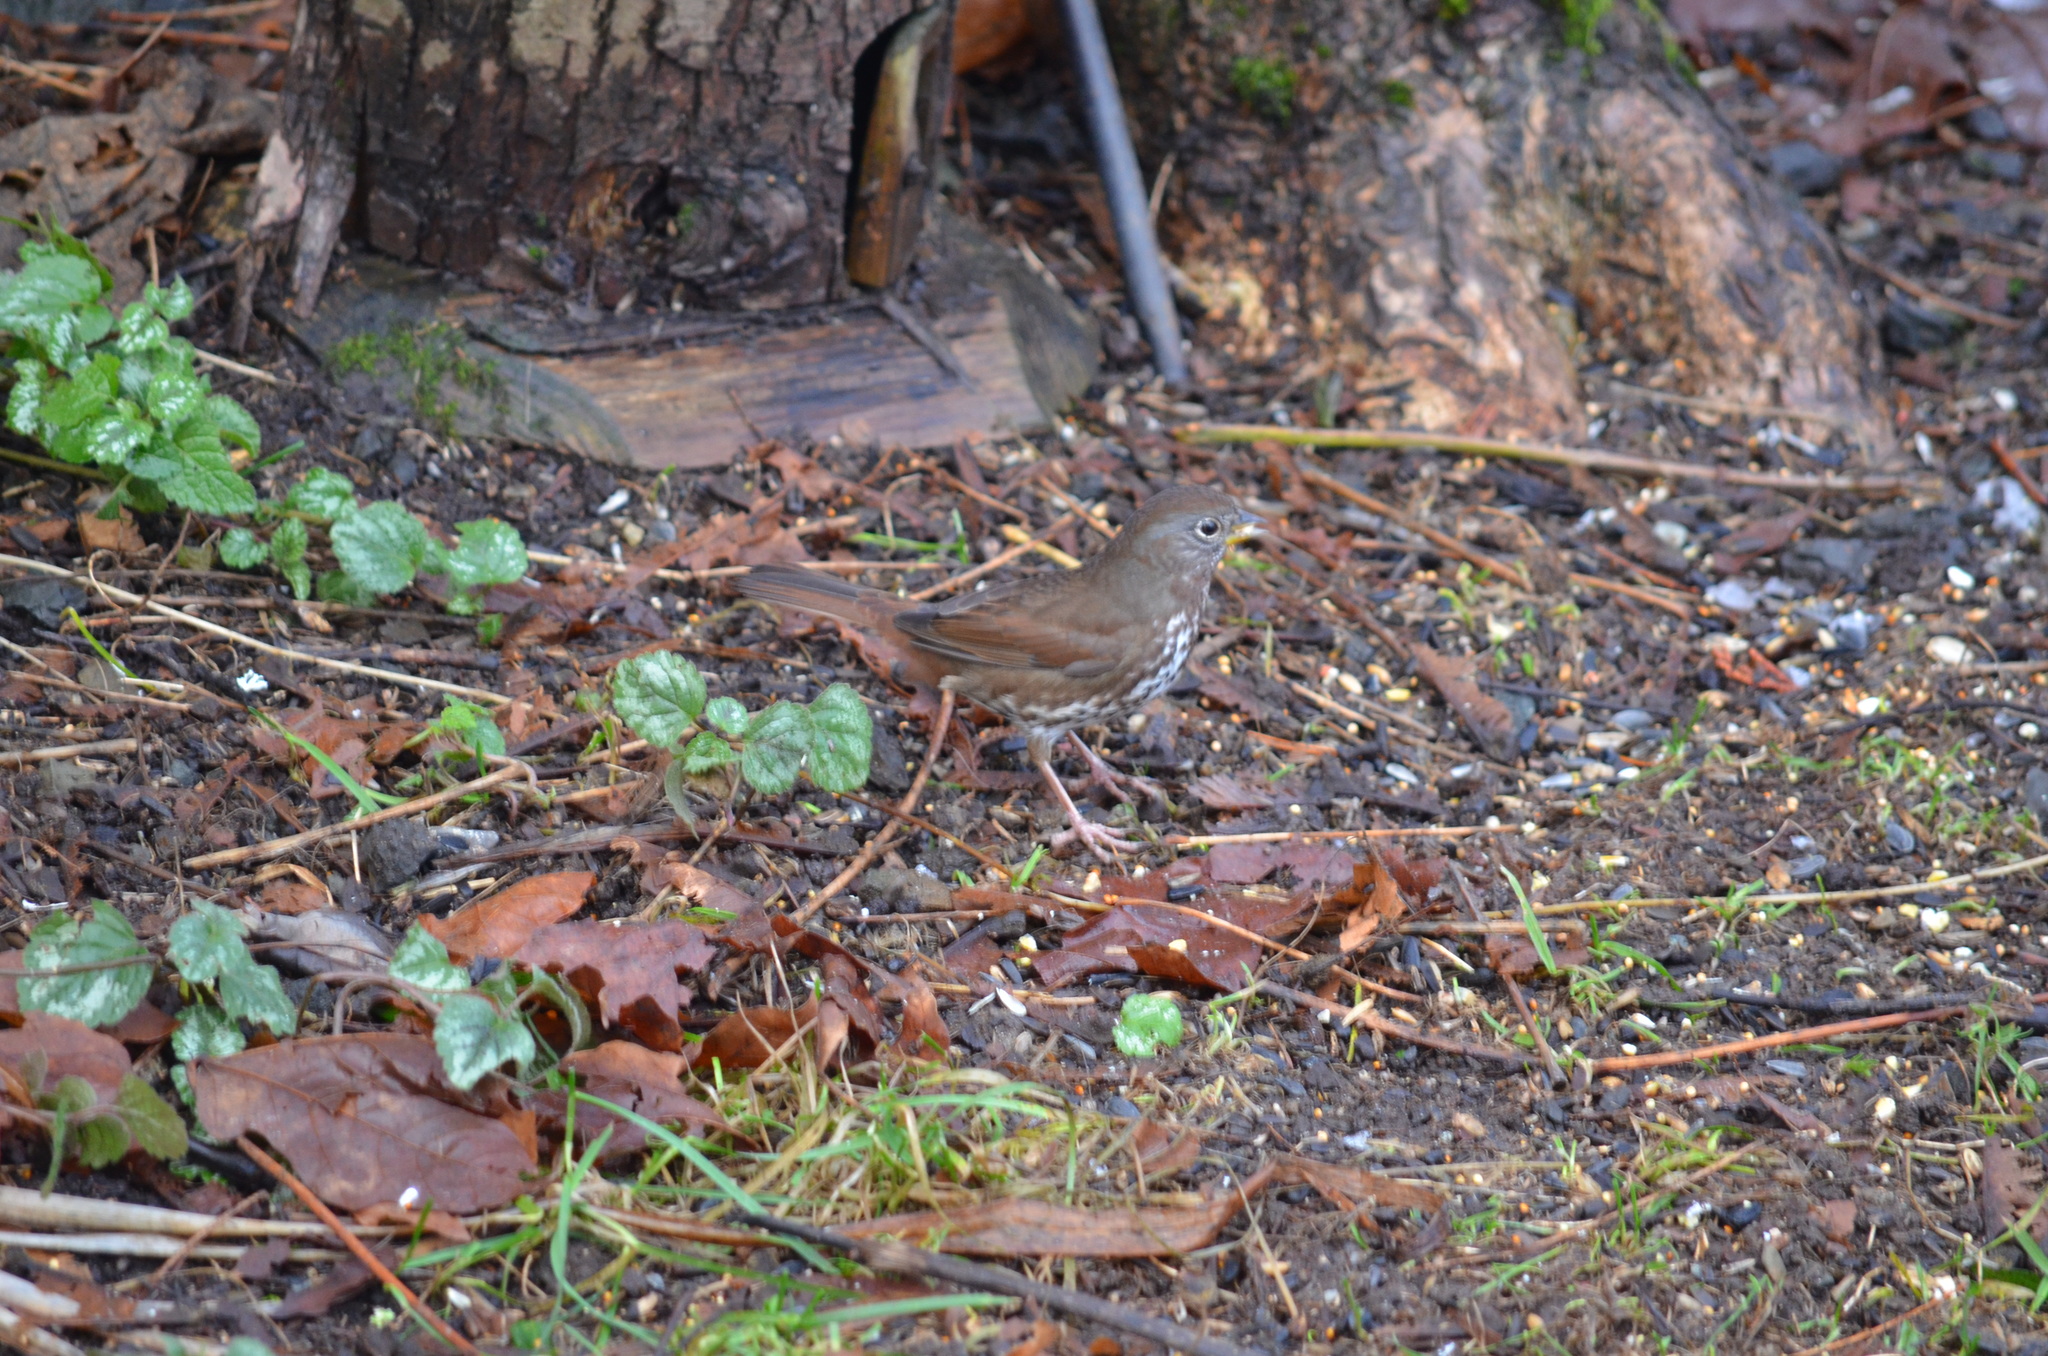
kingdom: Animalia
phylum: Chordata
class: Aves
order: Passeriformes
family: Passerellidae
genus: Passerella
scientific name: Passerella iliaca
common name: Fox sparrow
